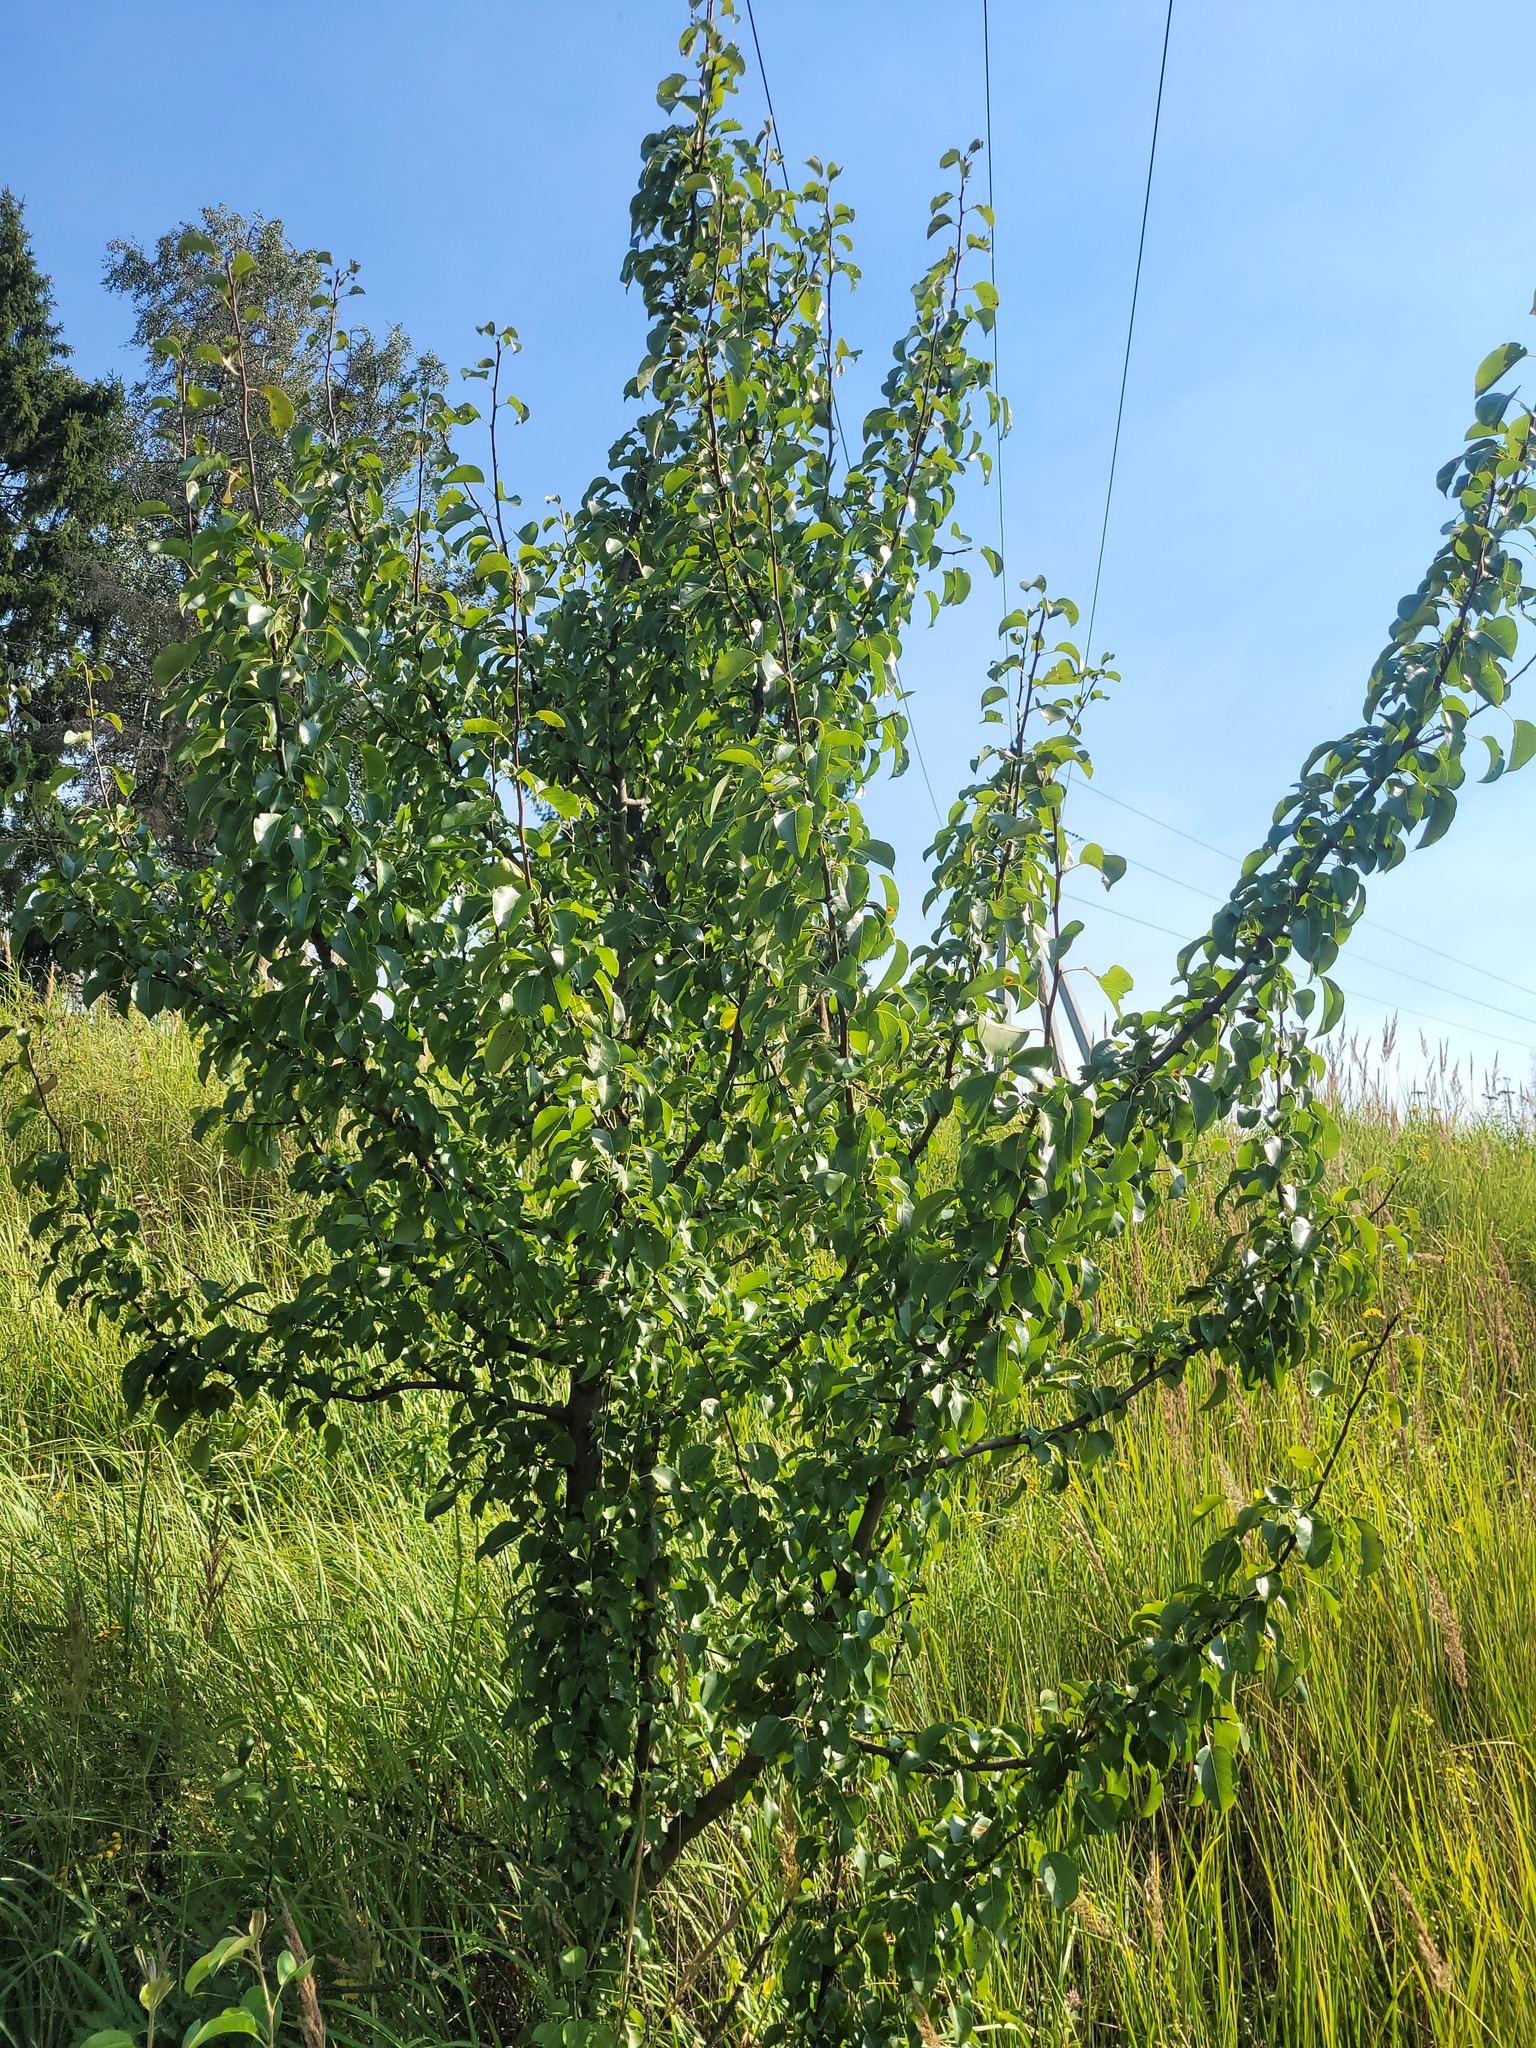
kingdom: Plantae
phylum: Tracheophyta
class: Magnoliopsida
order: Rosales
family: Rosaceae
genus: Pyrus
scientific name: Pyrus communis
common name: Pear
